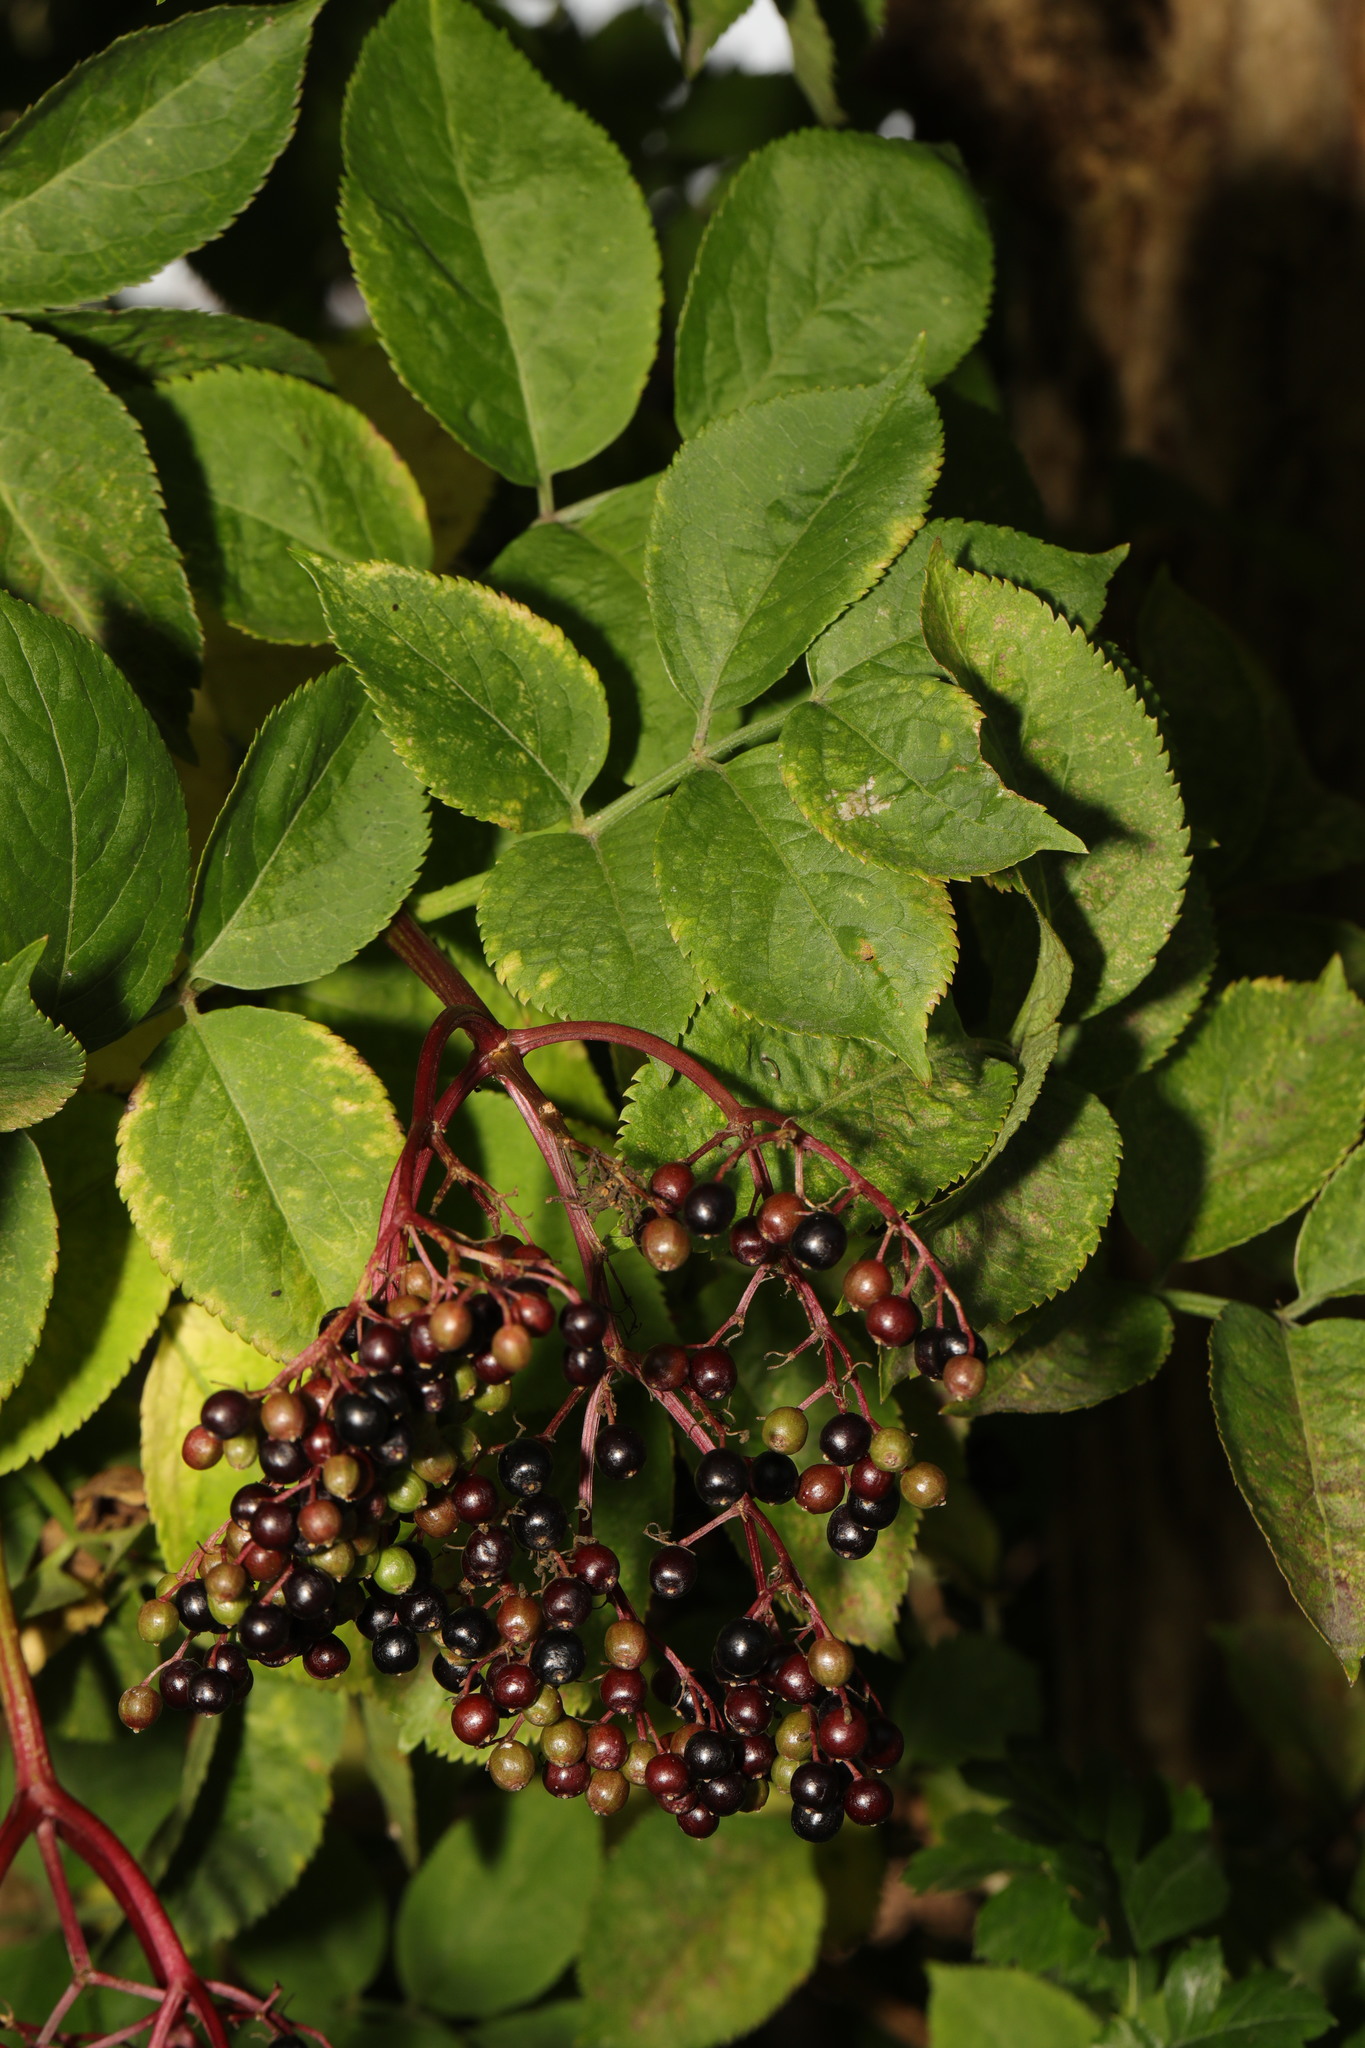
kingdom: Plantae
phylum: Tracheophyta
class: Magnoliopsida
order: Dipsacales
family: Viburnaceae
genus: Sambucus
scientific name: Sambucus nigra
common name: Elder
